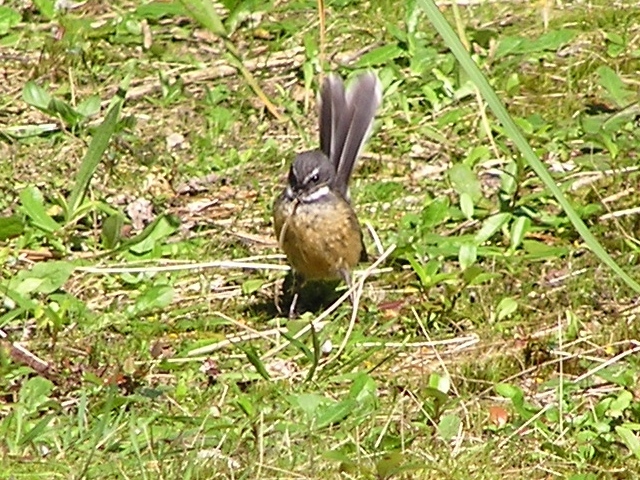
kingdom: Animalia
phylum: Chordata
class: Aves
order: Passeriformes
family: Rhipiduridae
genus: Rhipidura
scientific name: Rhipidura fuliginosa
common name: New zealand fantail
